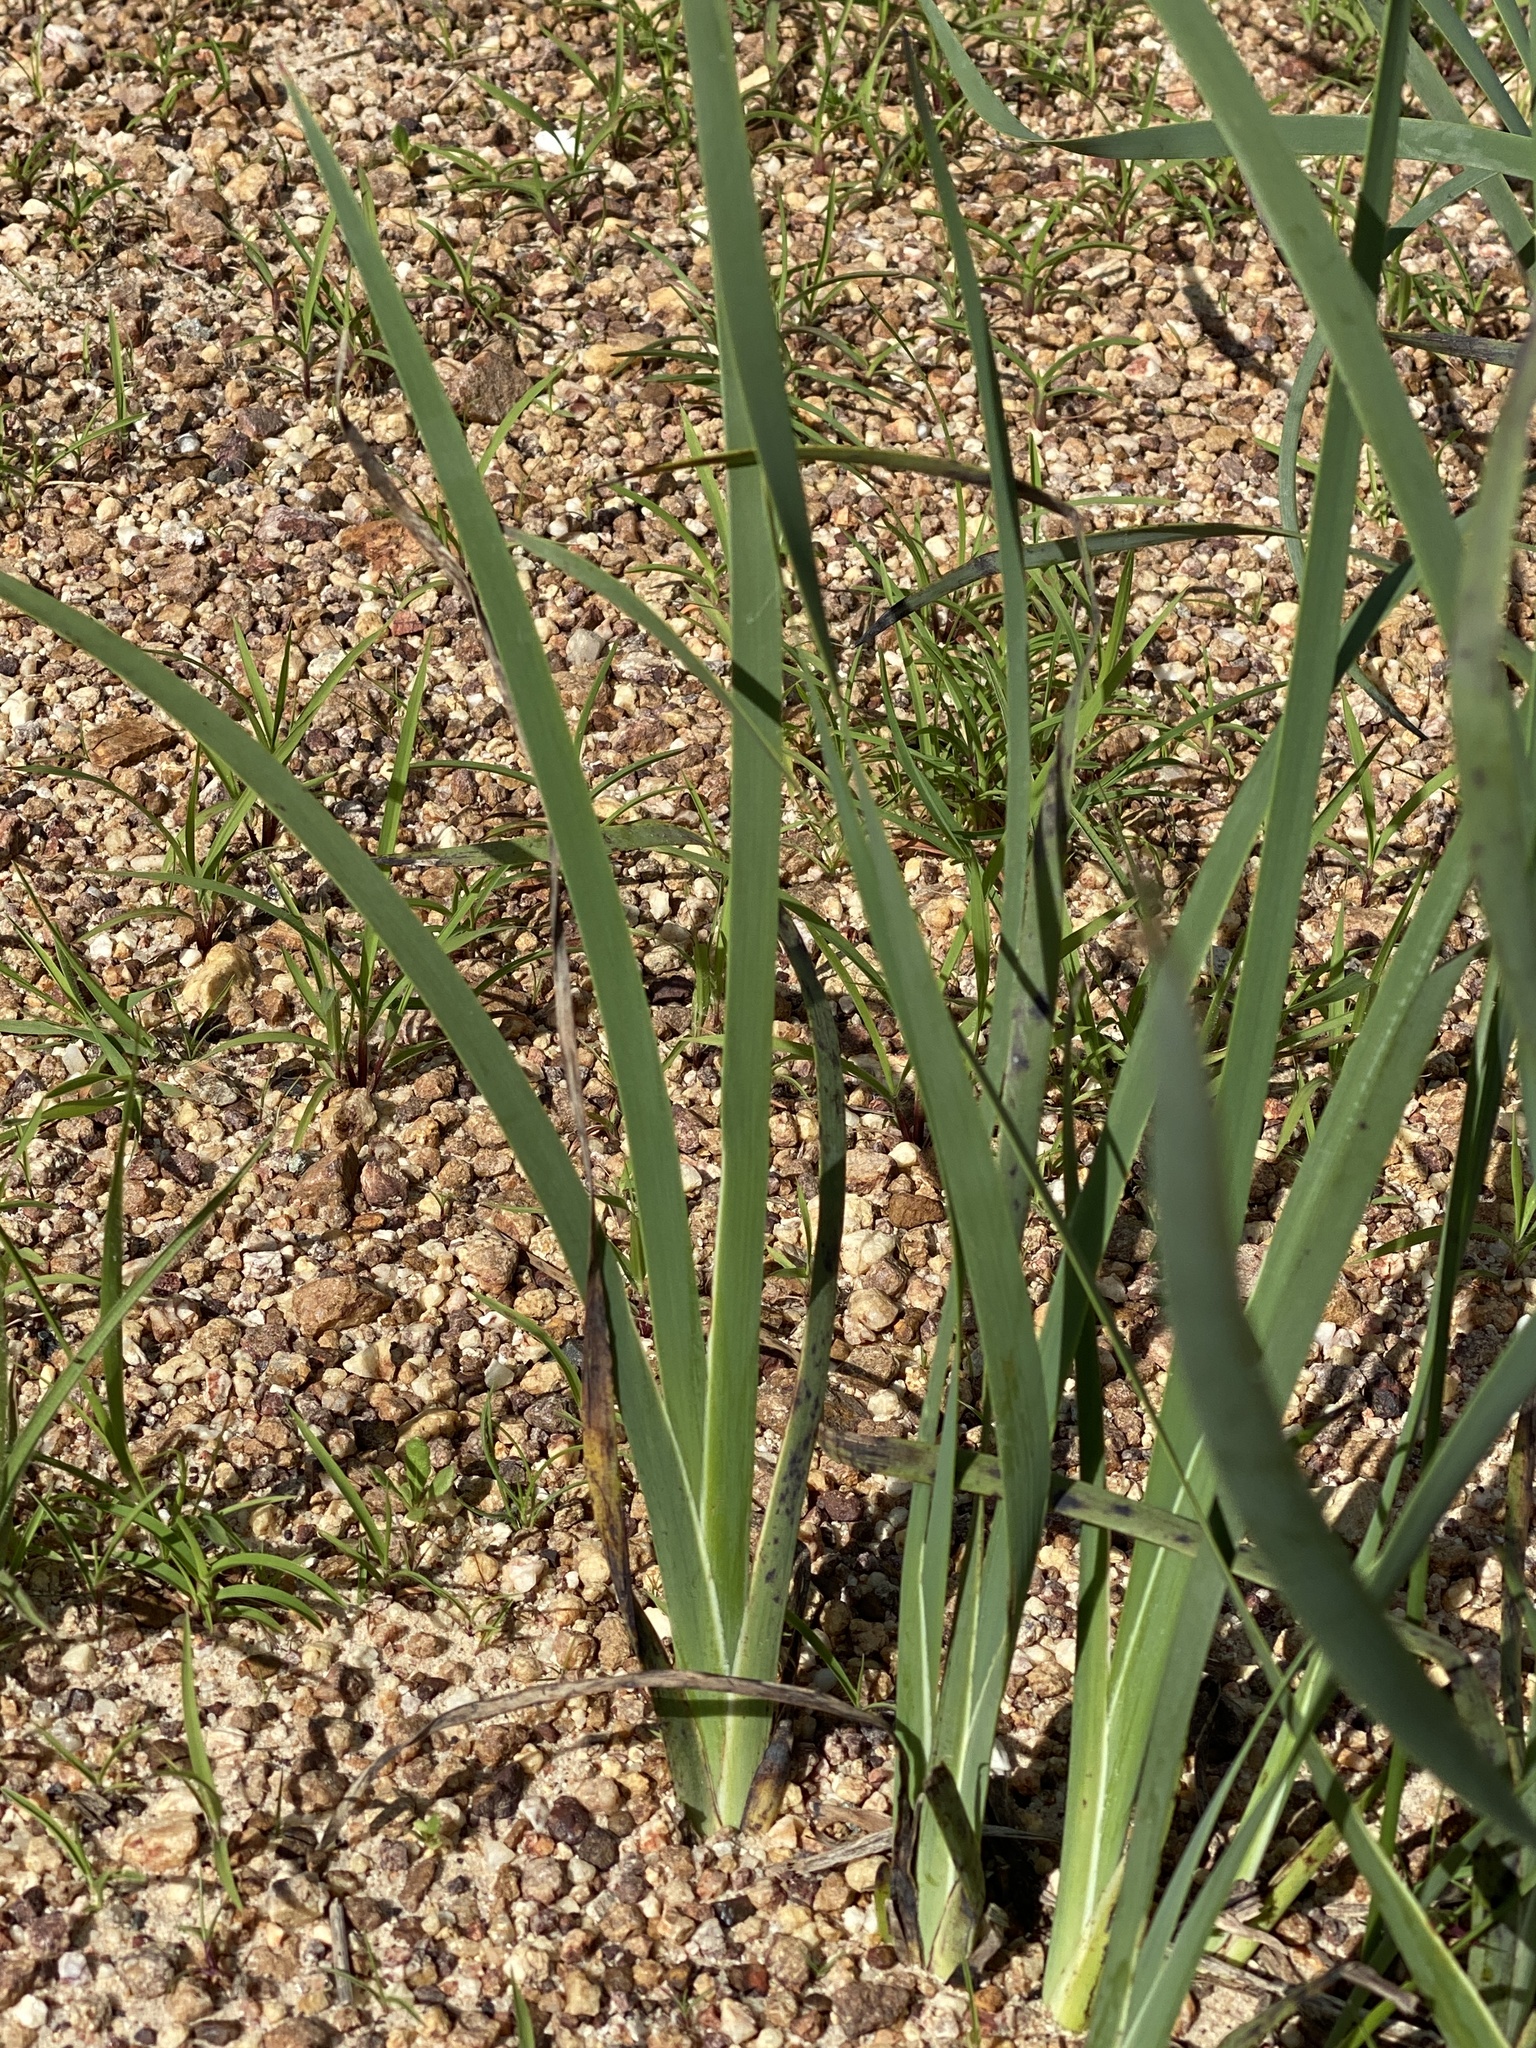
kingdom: Plantae
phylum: Tracheophyta
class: Liliopsida
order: Commelinales
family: Haemodoraceae
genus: Haemodorum
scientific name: Haemodorum coccineum
